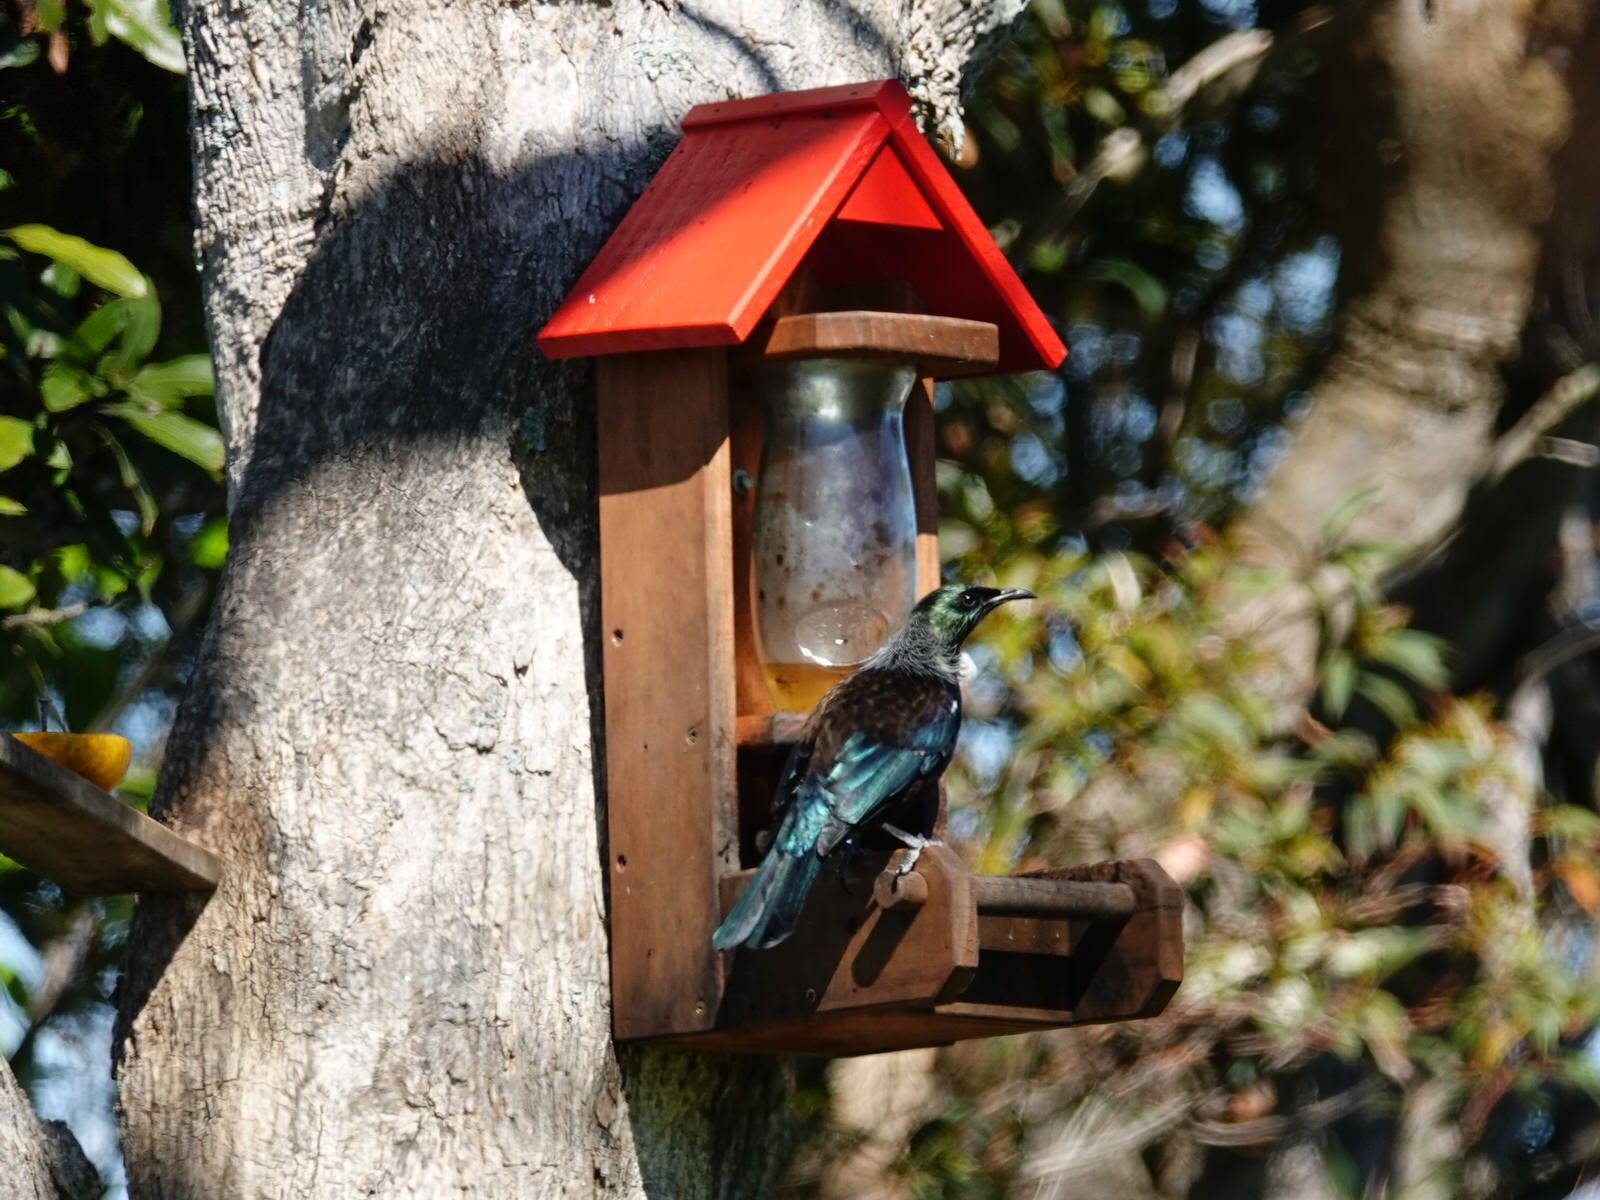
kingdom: Animalia
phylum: Chordata
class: Aves
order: Passeriformes
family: Meliphagidae
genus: Prosthemadera
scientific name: Prosthemadera novaeseelandiae
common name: Tui
